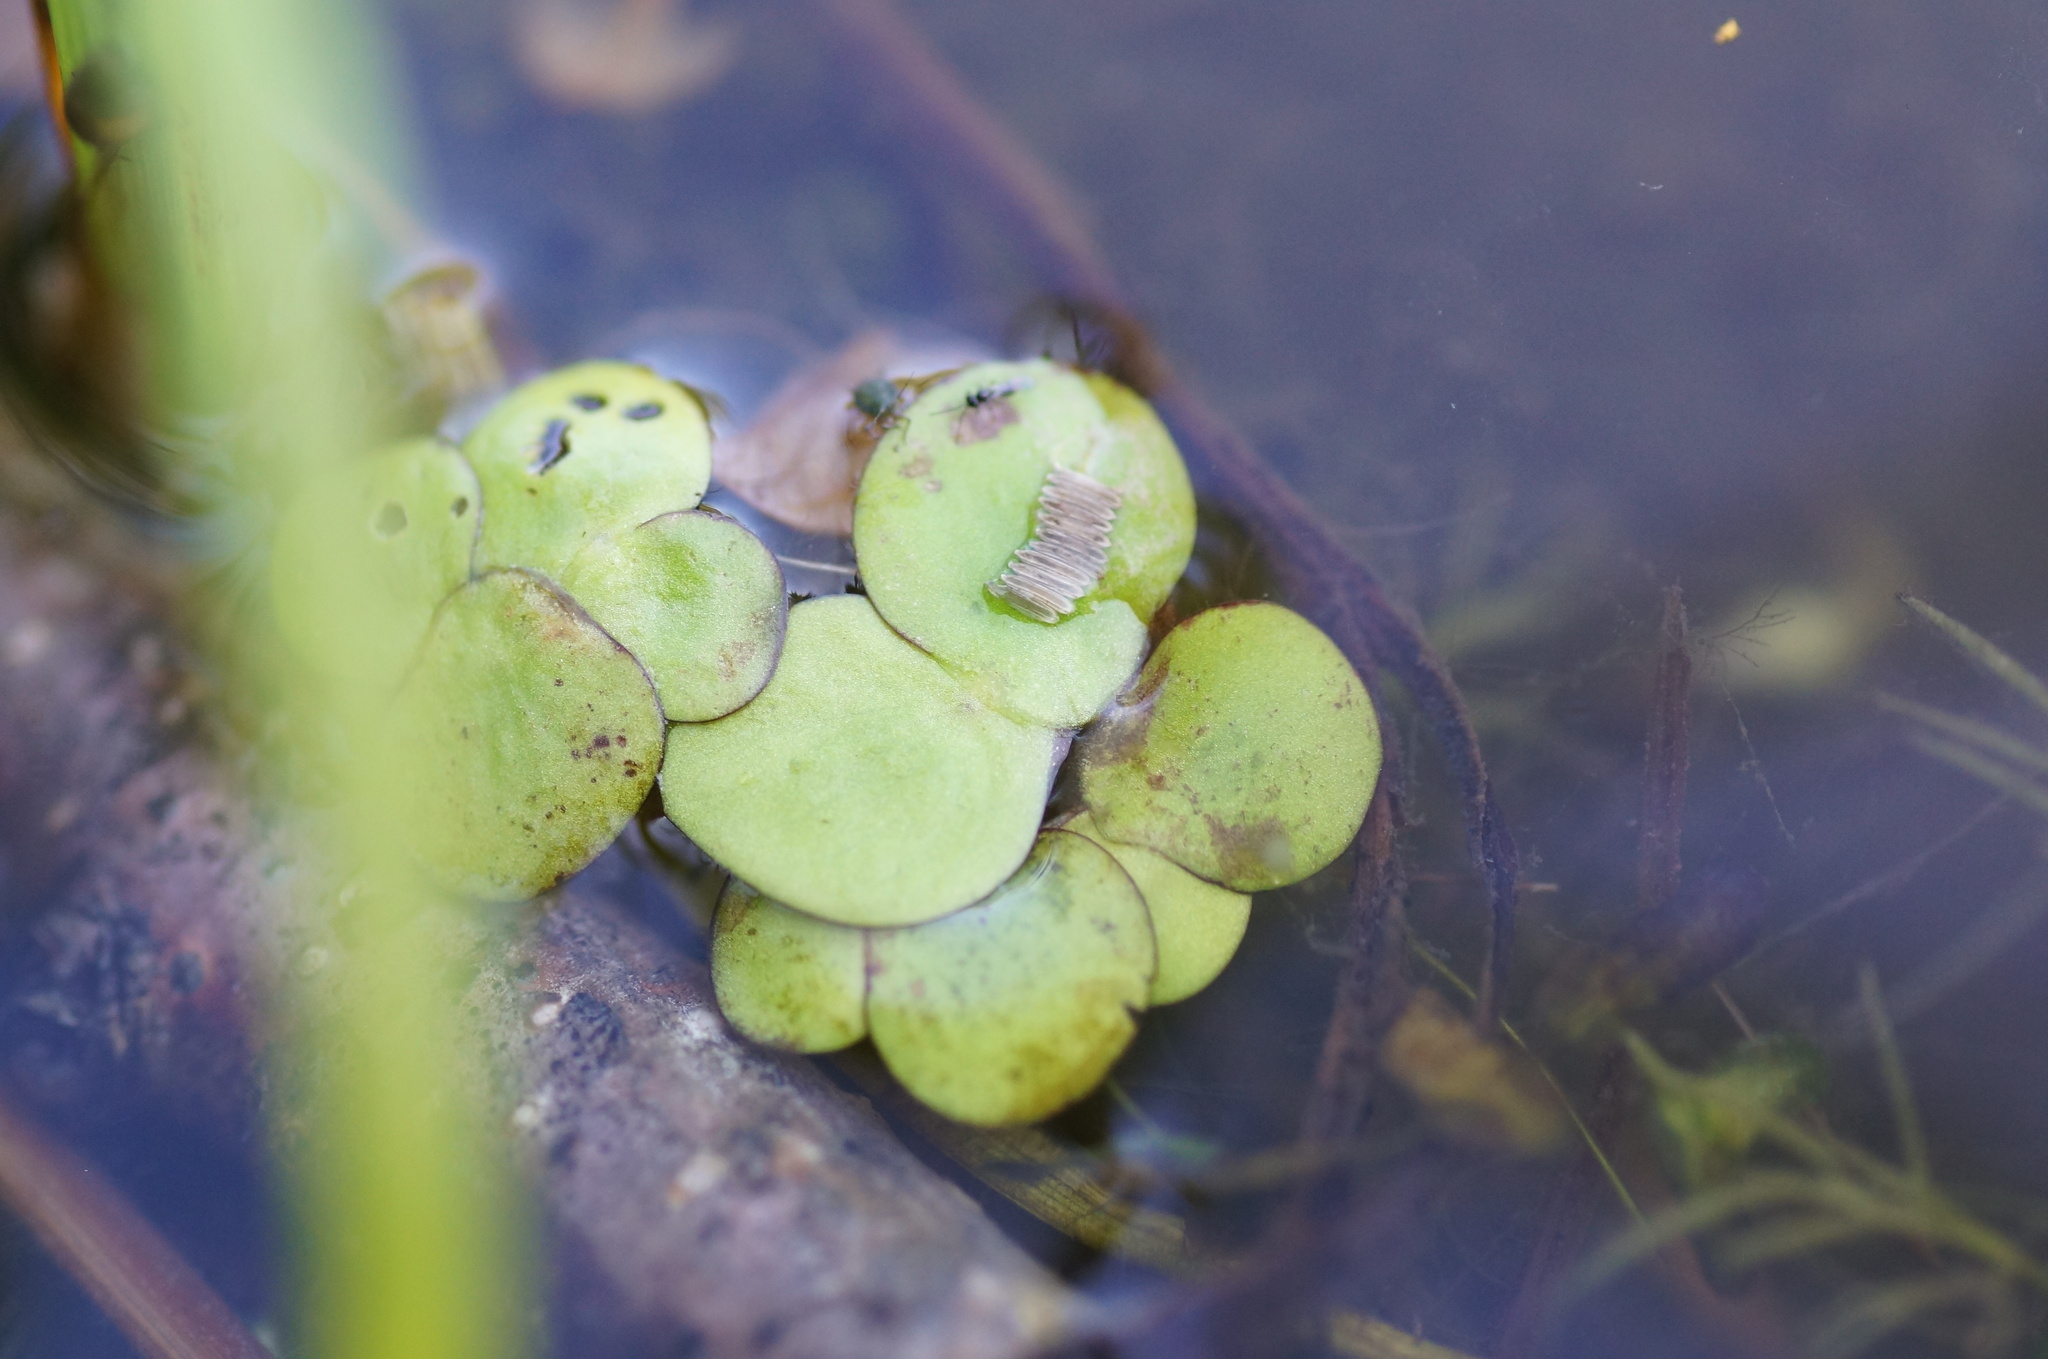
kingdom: Plantae
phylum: Tracheophyta
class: Liliopsida
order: Alismatales
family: Araceae
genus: Spirodela
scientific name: Spirodela polyrhiza
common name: Great duckweed
